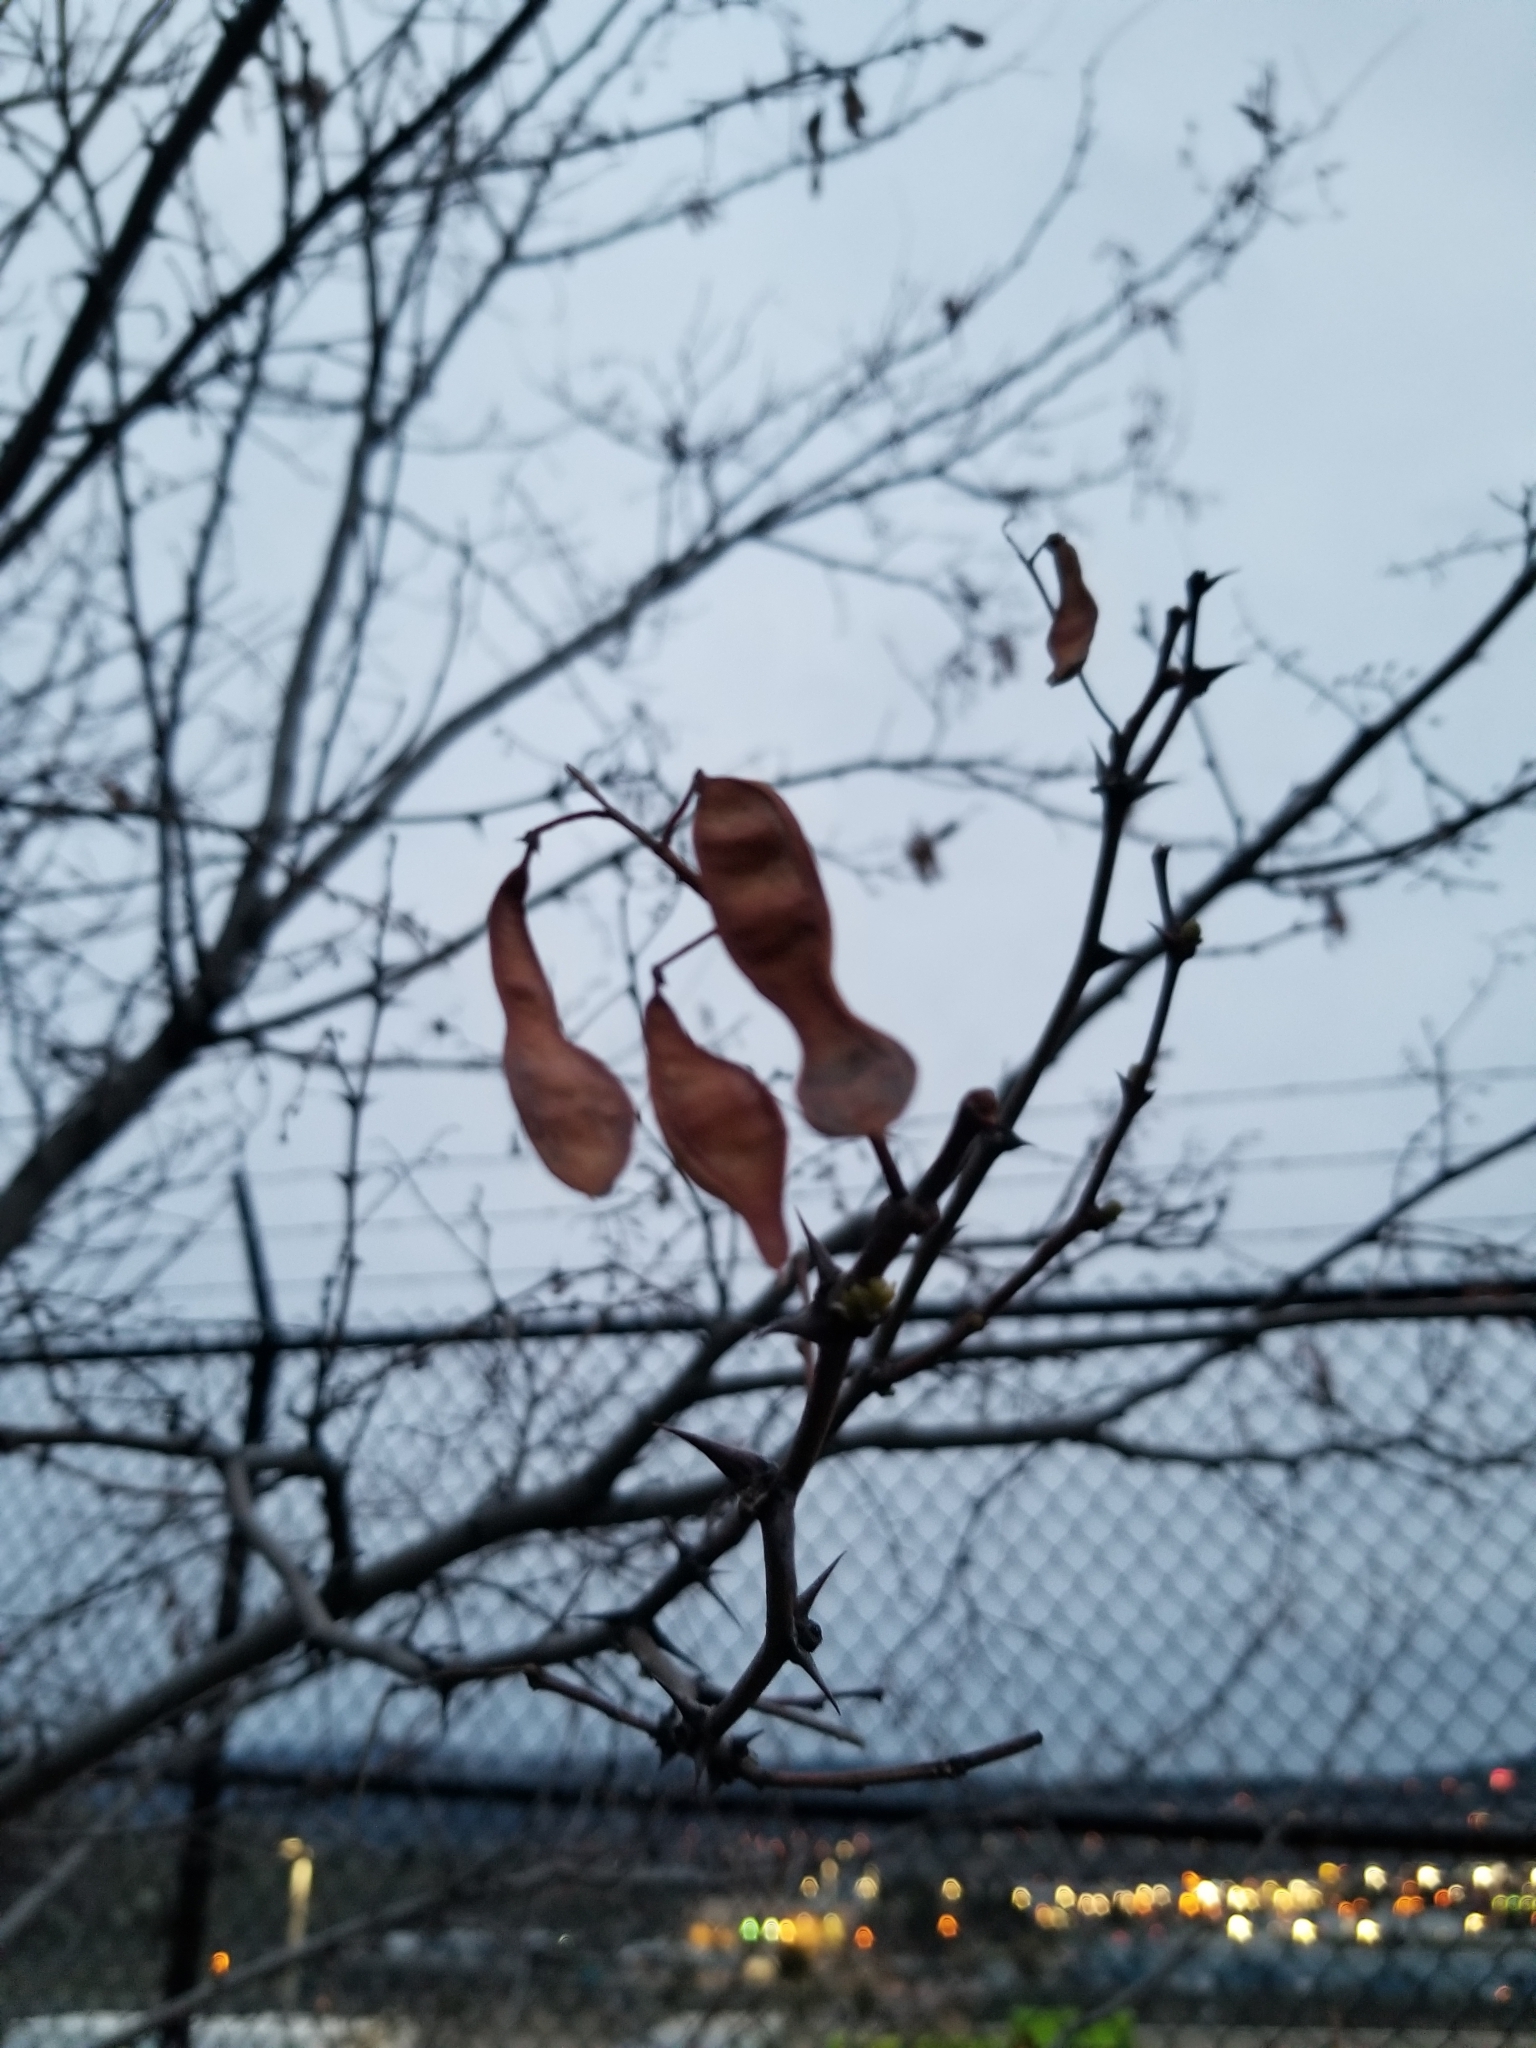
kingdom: Plantae
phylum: Tracheophyta
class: Magnoliopsida
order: Fabales
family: Fabaceae
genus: Robinia
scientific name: Robinia pseudoacacia
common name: Black locust
